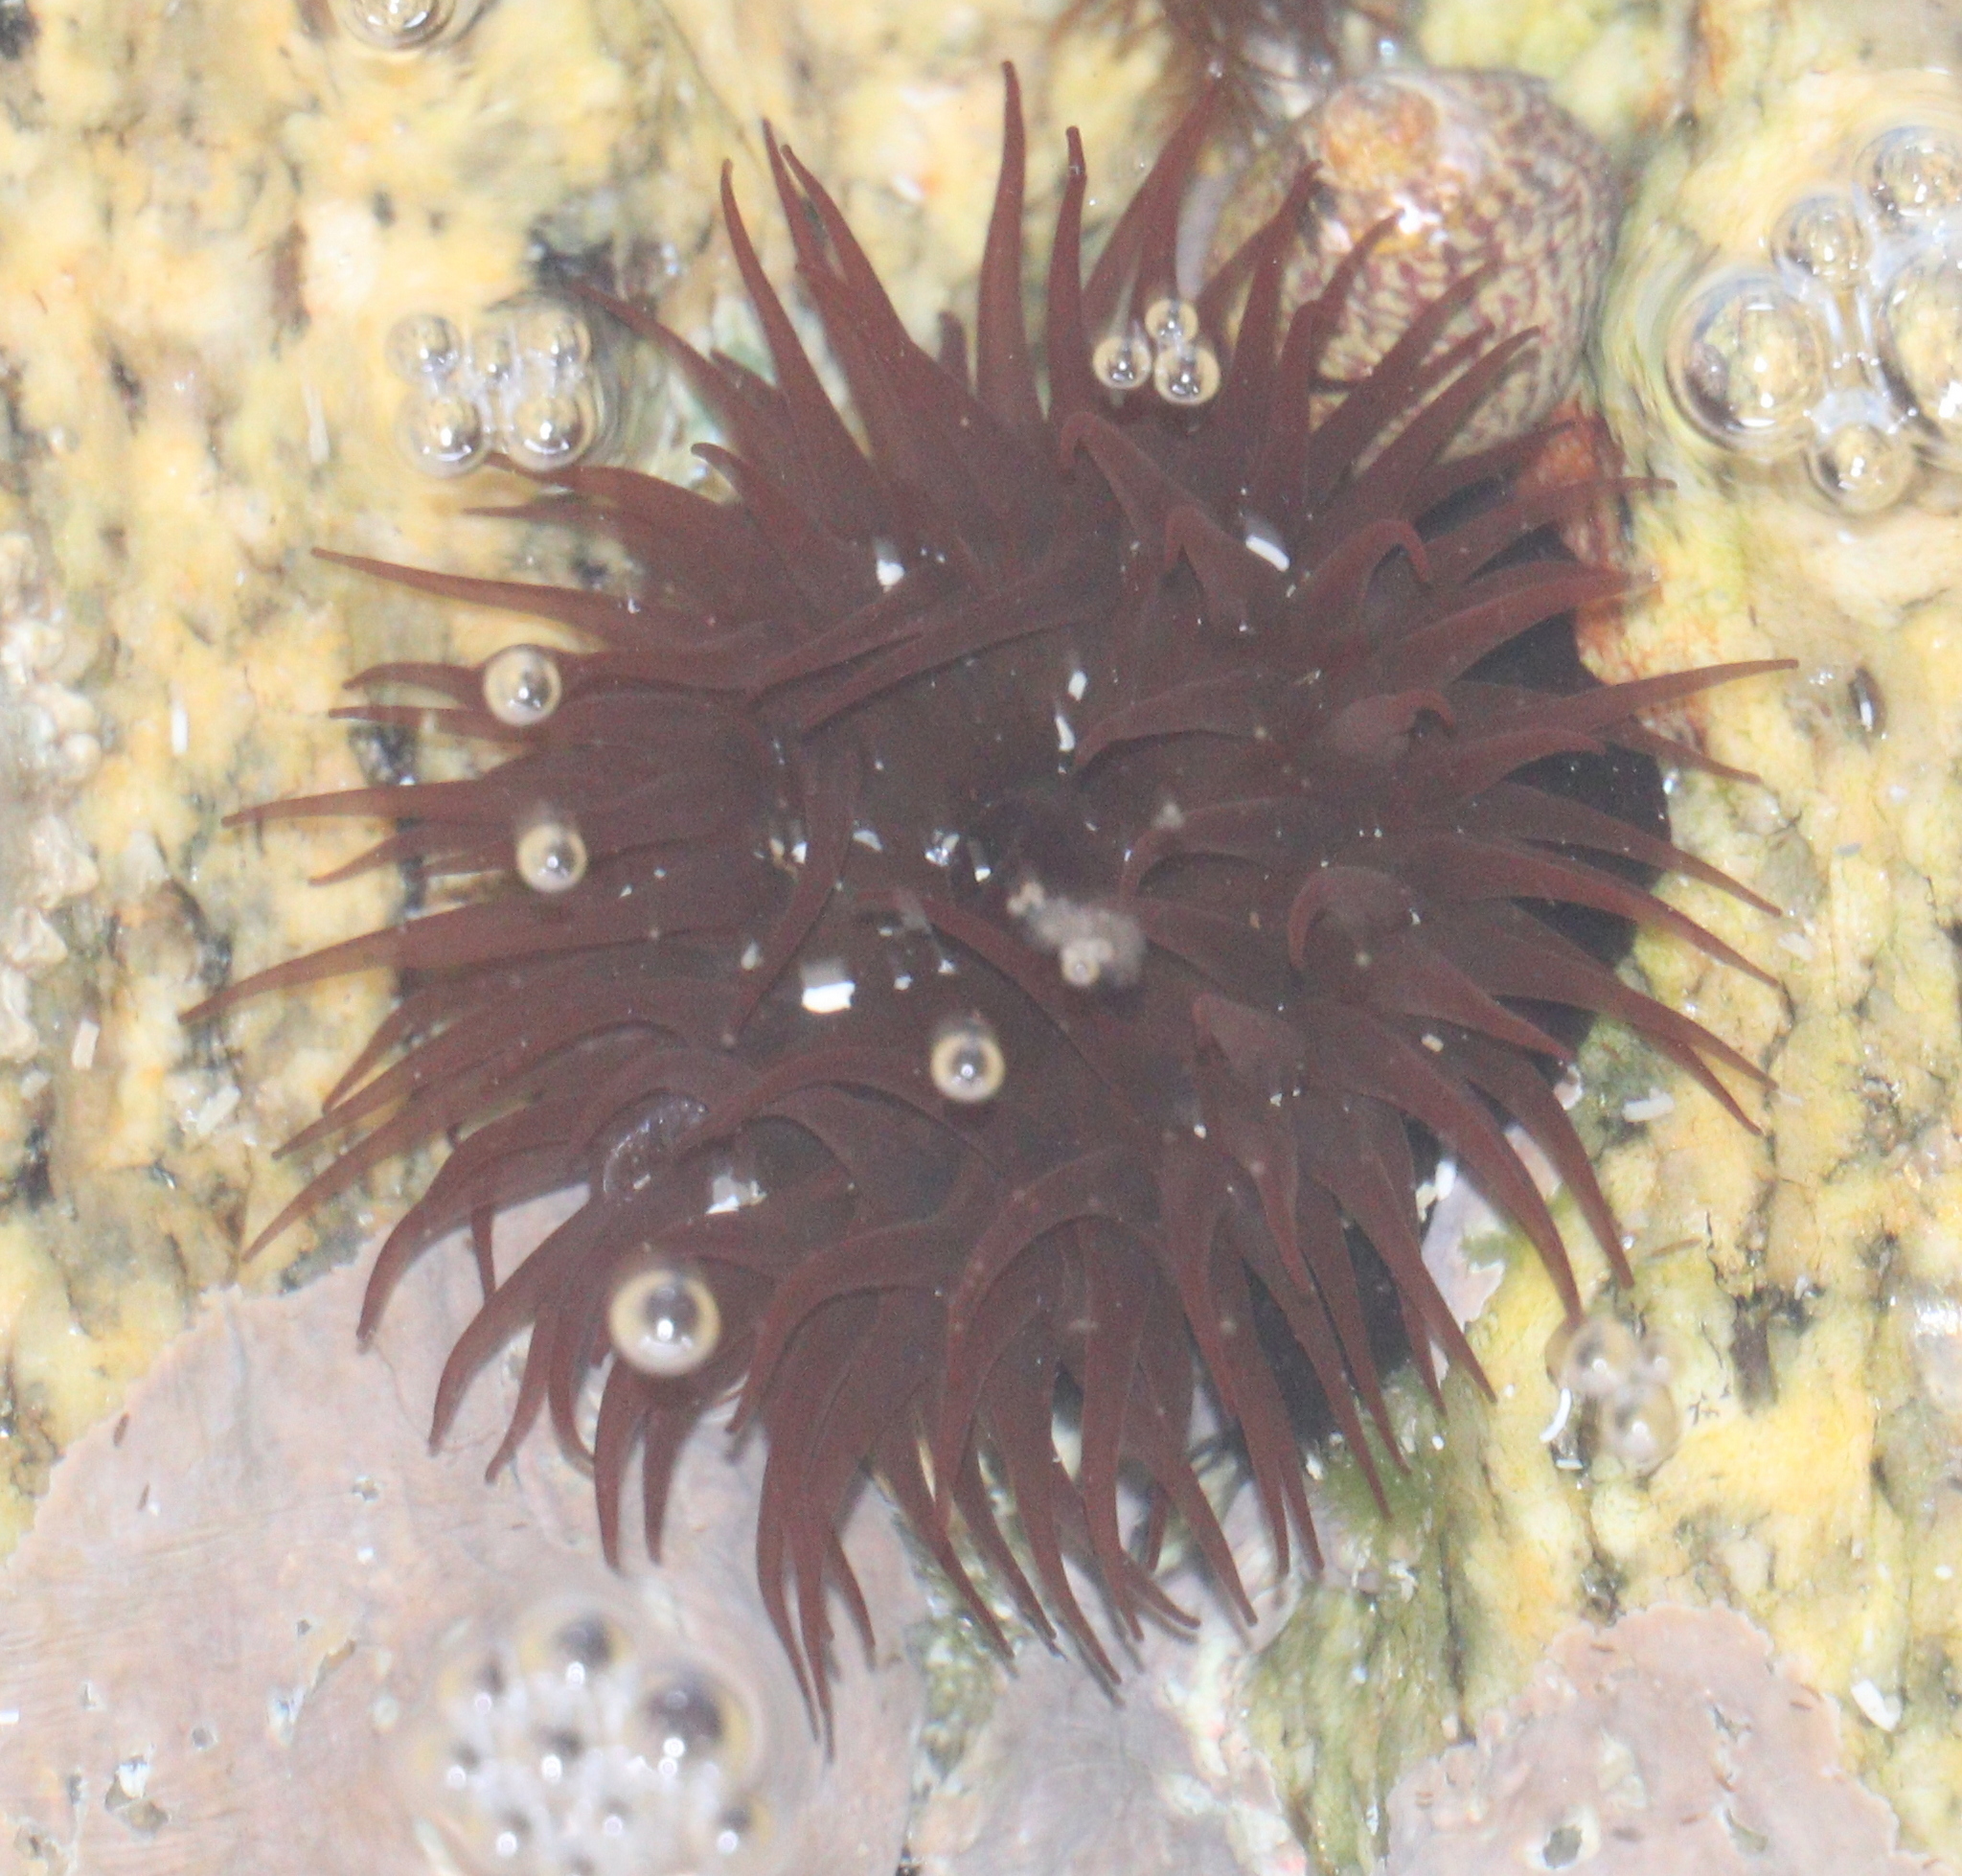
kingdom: Animalia
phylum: Cnidaria
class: Anthozoa
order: Actiniaria
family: Actiniidae
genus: Actinia
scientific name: Actinia equina
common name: Beadlet anemone
